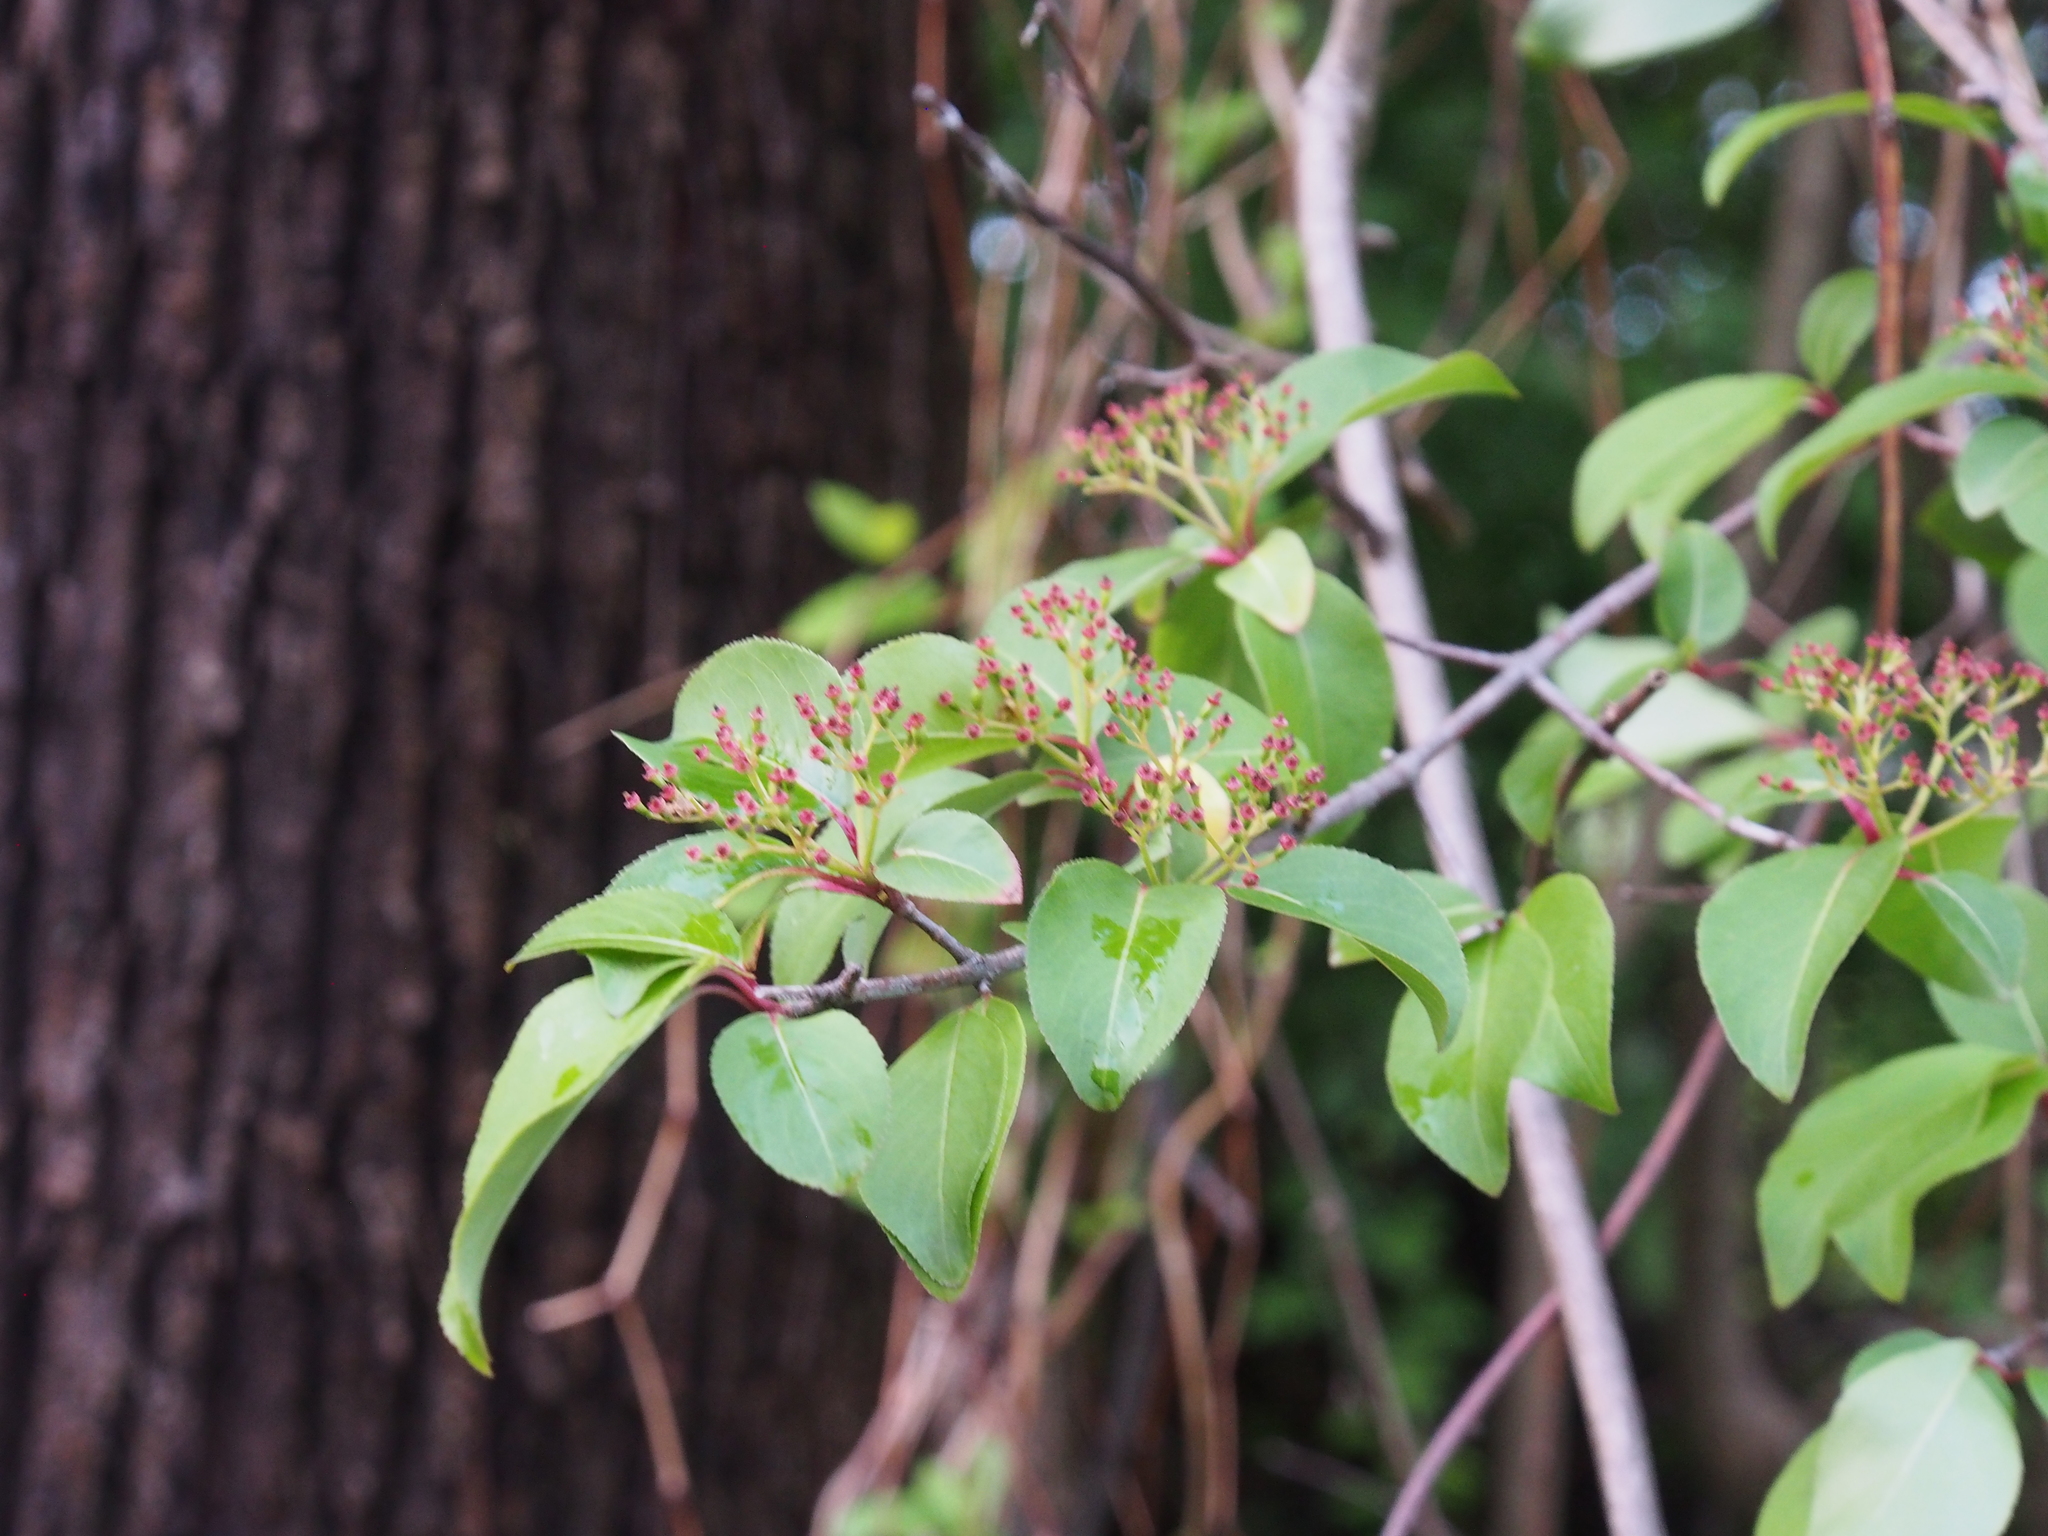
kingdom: Plantae
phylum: Tracheophyta
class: Magnoliopsida
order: Dipsacales
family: Viburnaceae
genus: Viburnum
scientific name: Viburnum prunifolium
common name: Black haw
